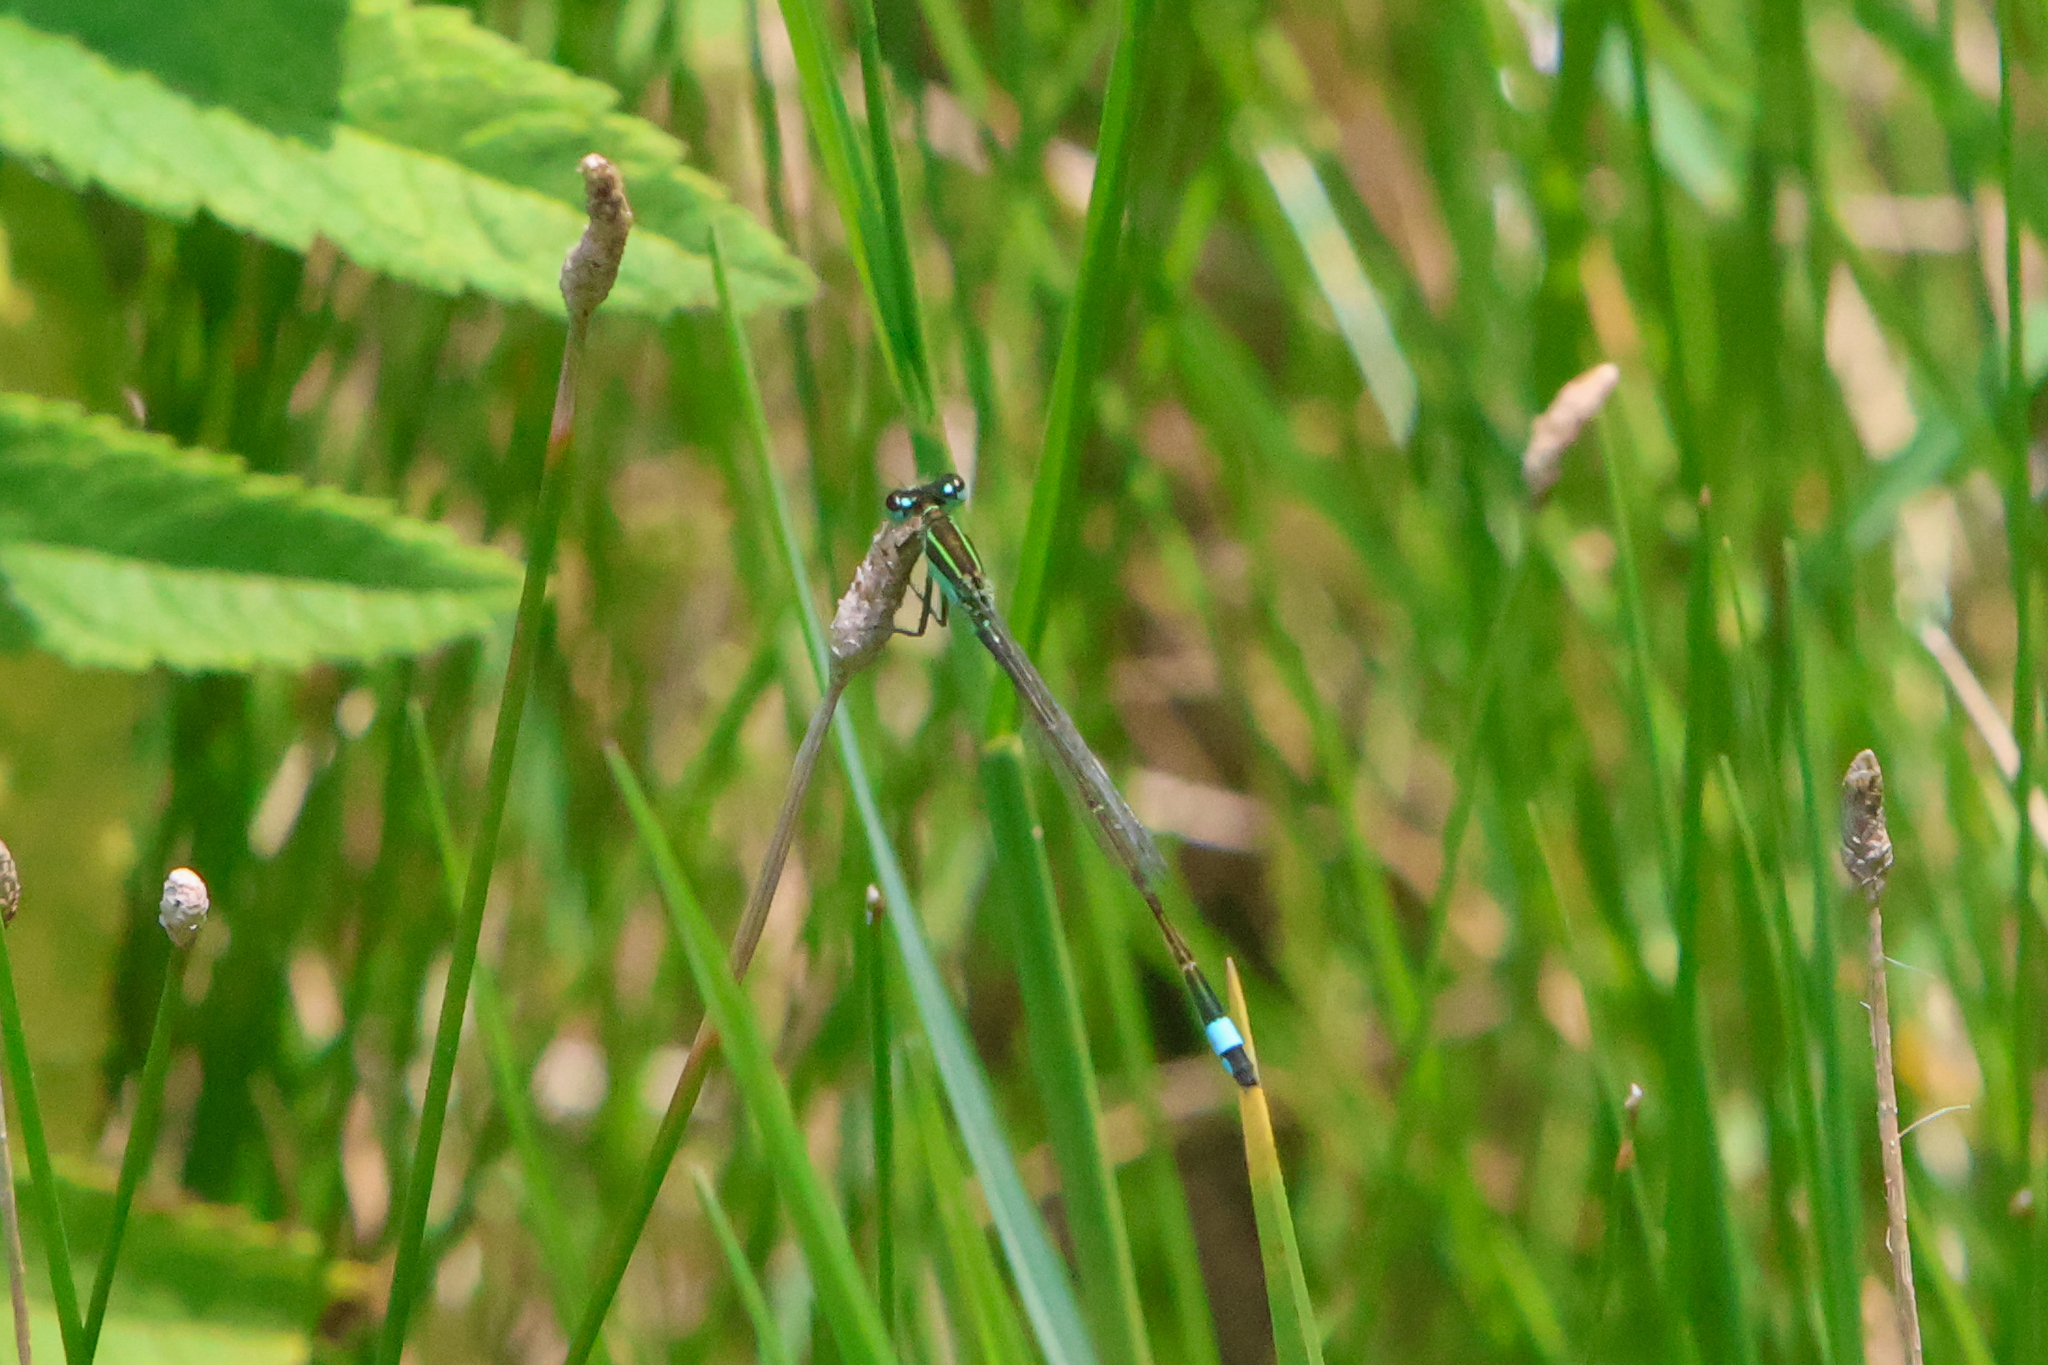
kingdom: Animalia
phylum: Arthropoda
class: Insecta
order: Odonata
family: Coenagrionidae
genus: Ischnura
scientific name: Ischnura ramburii
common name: Rambur's forktail
